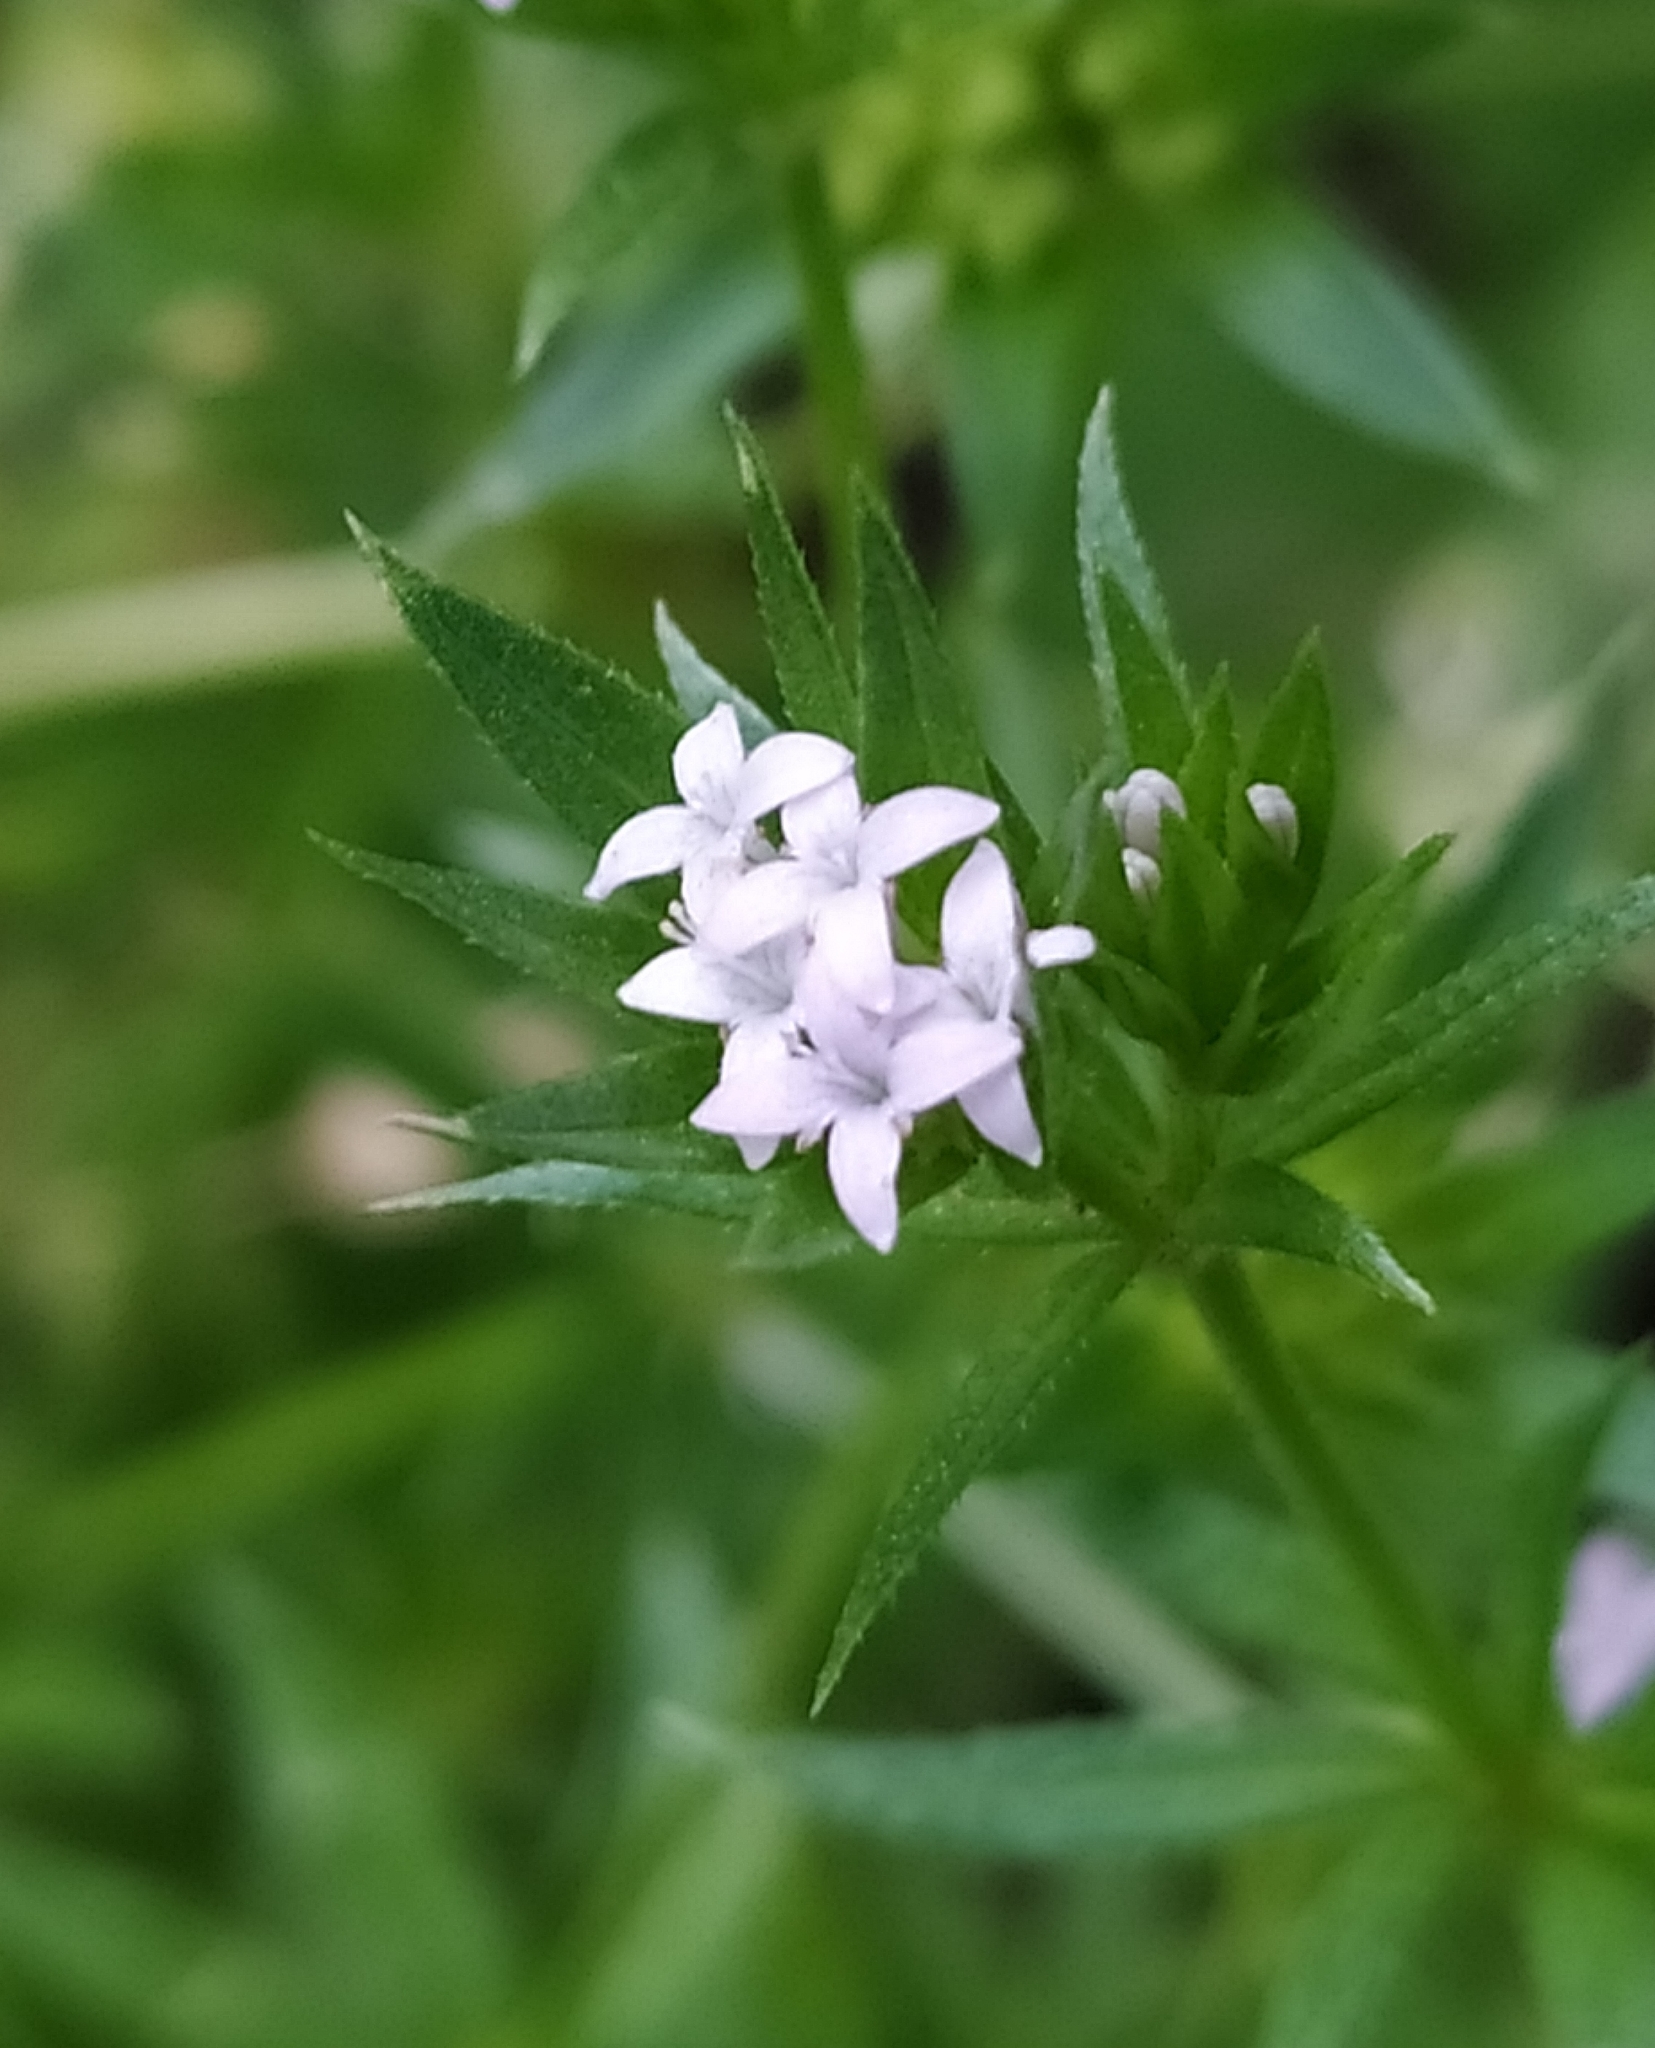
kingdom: Plantae
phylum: Tracheophyta
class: Magnoliopsida
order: Gentianales
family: Rubiaceae
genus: Sherardia
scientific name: Sherardia arvensis
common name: Field madder
